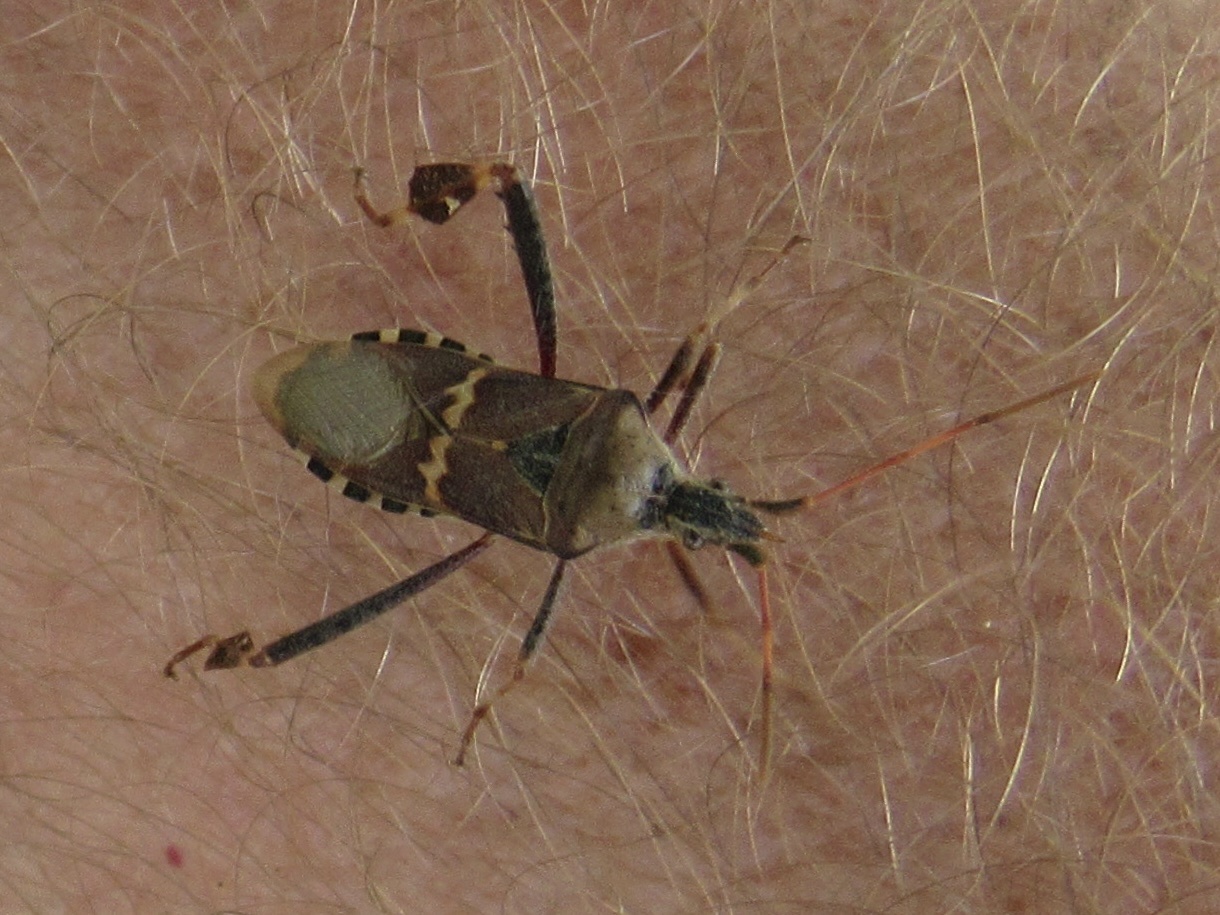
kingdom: Animalia
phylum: Arthropoda
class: Insecta
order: Hemiptera
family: Coreidae
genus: Leptoglossus
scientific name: Leptoglossus clypealis
